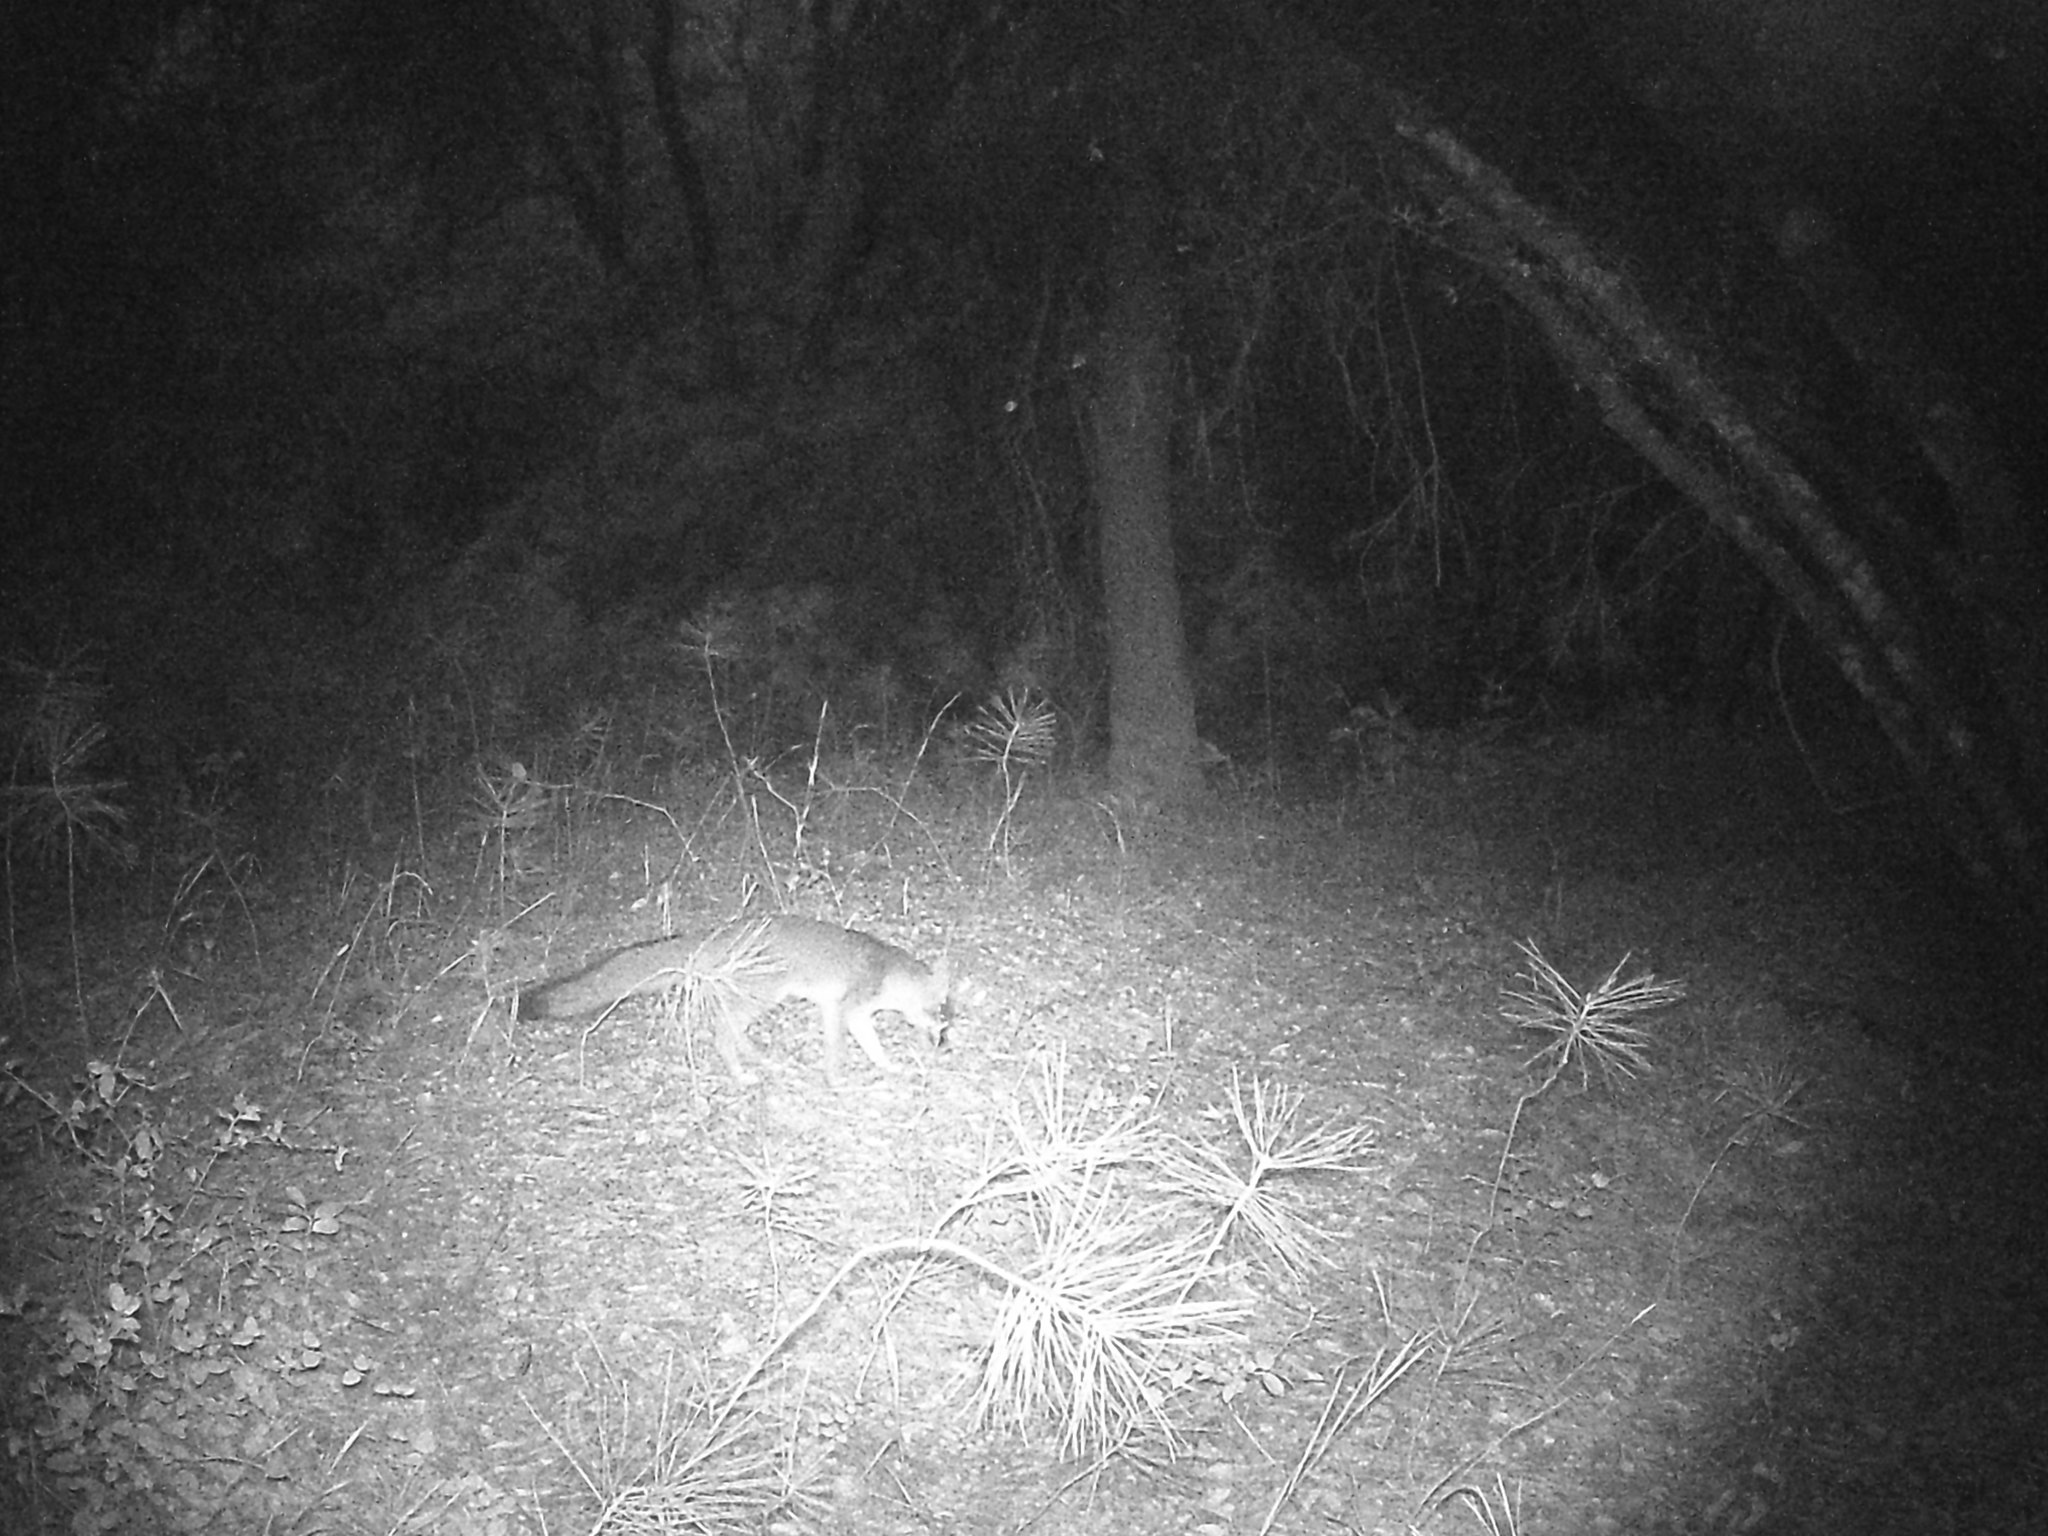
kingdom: Animalia
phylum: Chordata
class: Mammalia
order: Carnivora
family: Canidae
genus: Urocyon
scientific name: Urocyon cinereoargenteus
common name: Gray fox
